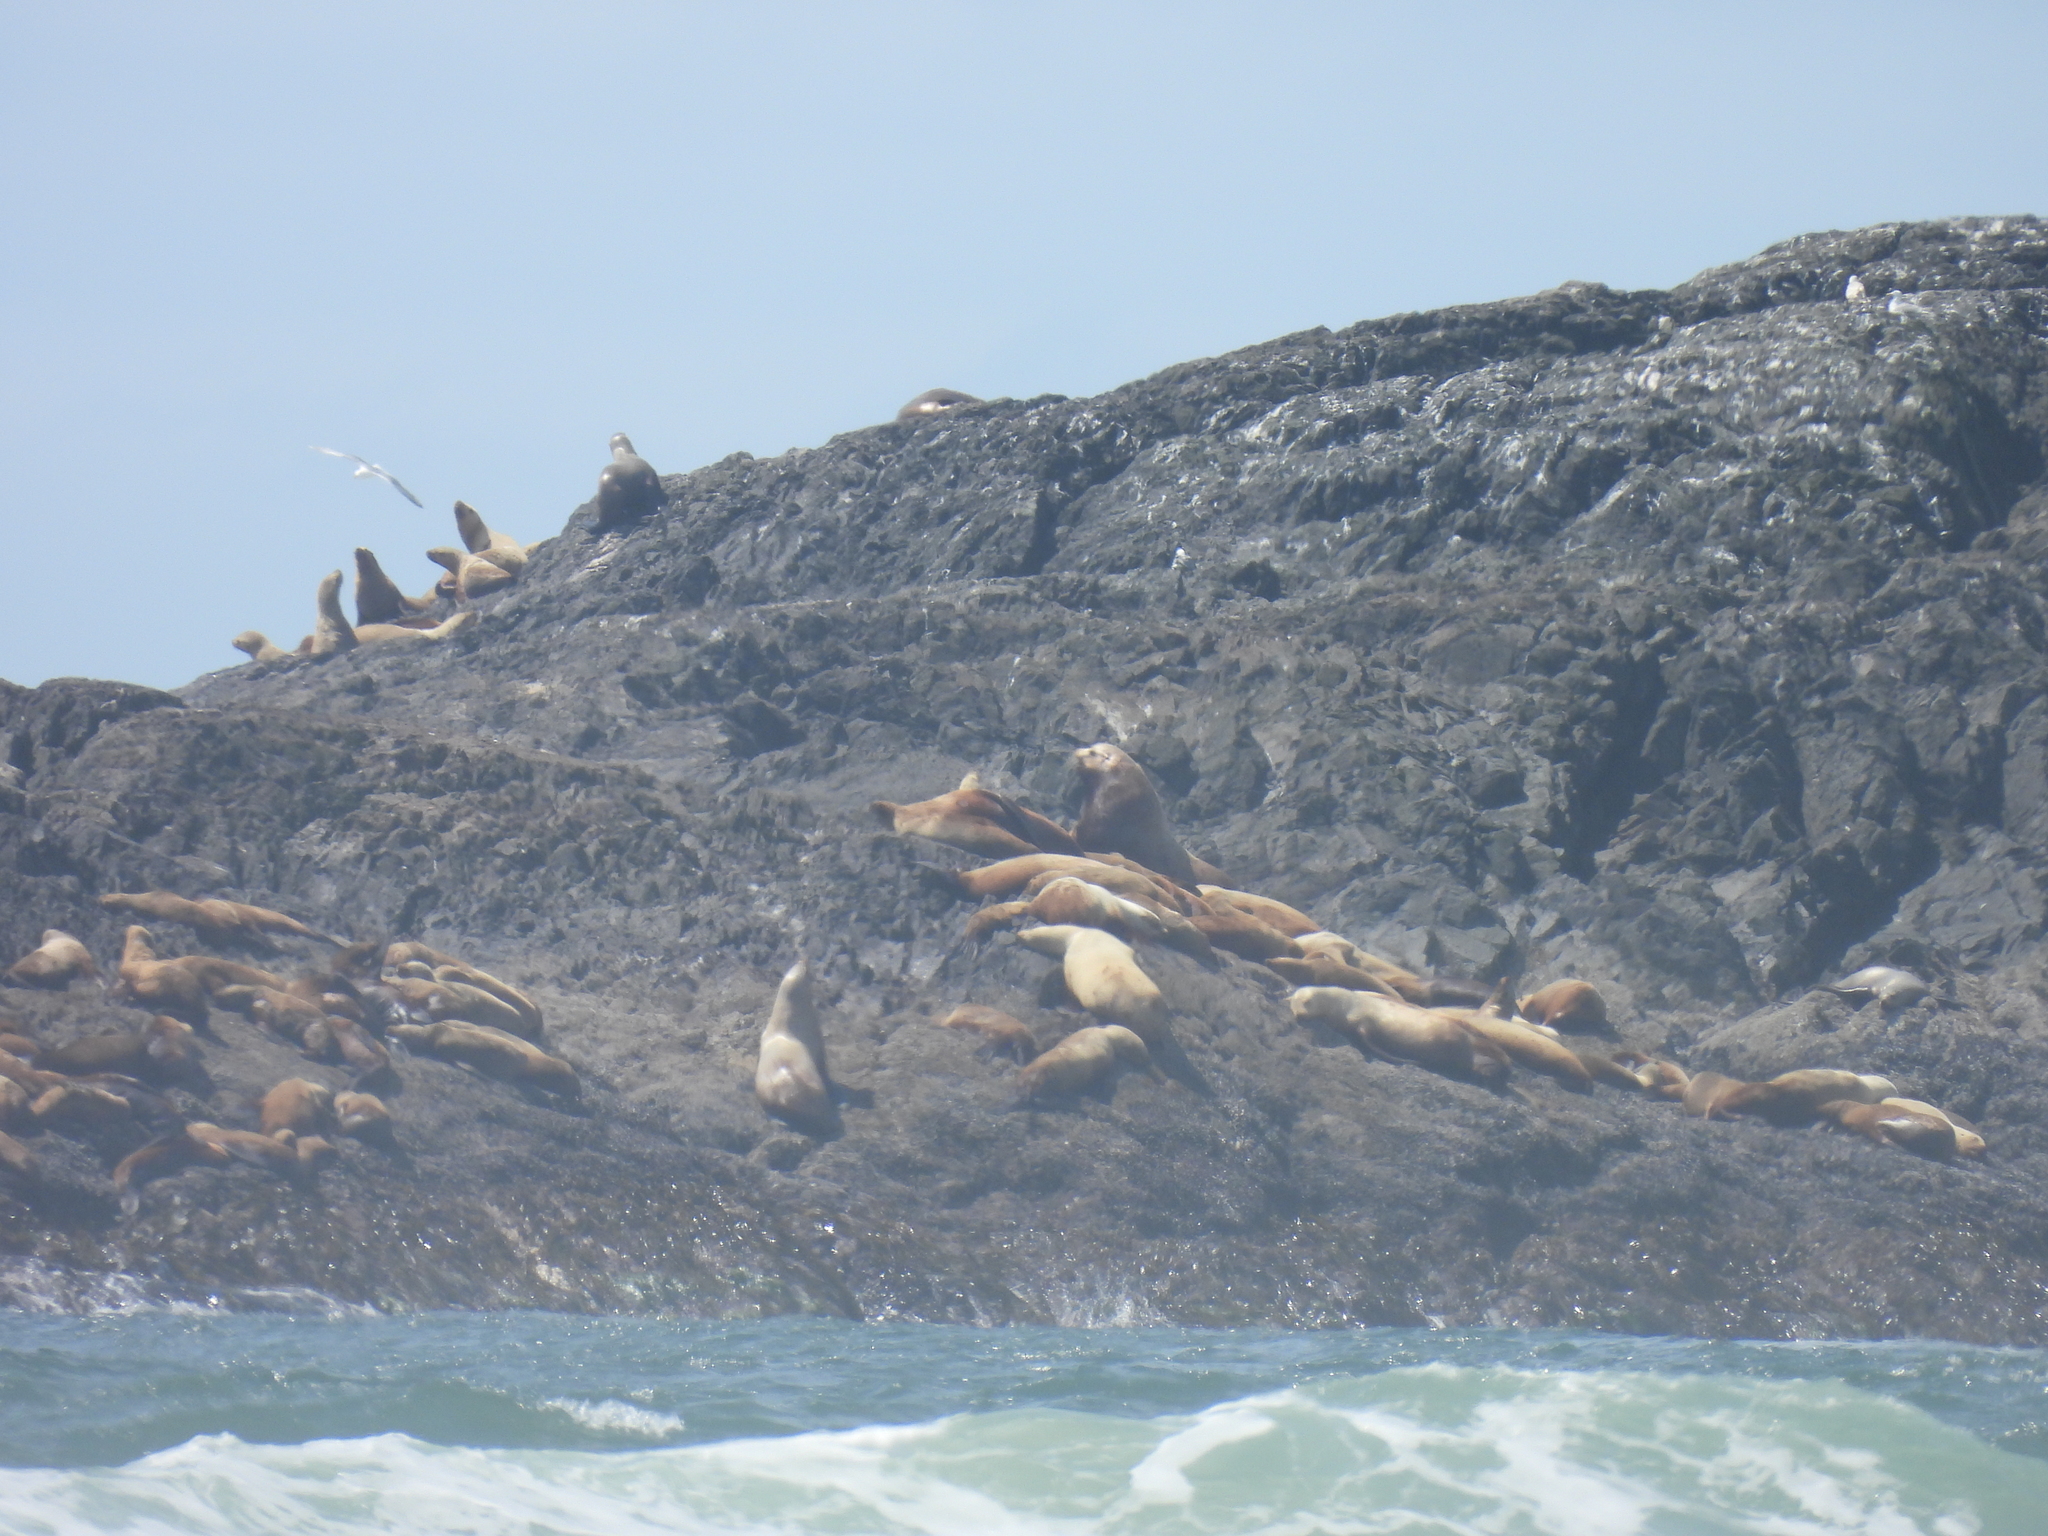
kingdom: Animalia
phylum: Chordata
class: Mammalia
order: Carnivora
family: Otariidae
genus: Eumetopias
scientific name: Eumetopias jubatus
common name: Steller sea lion
